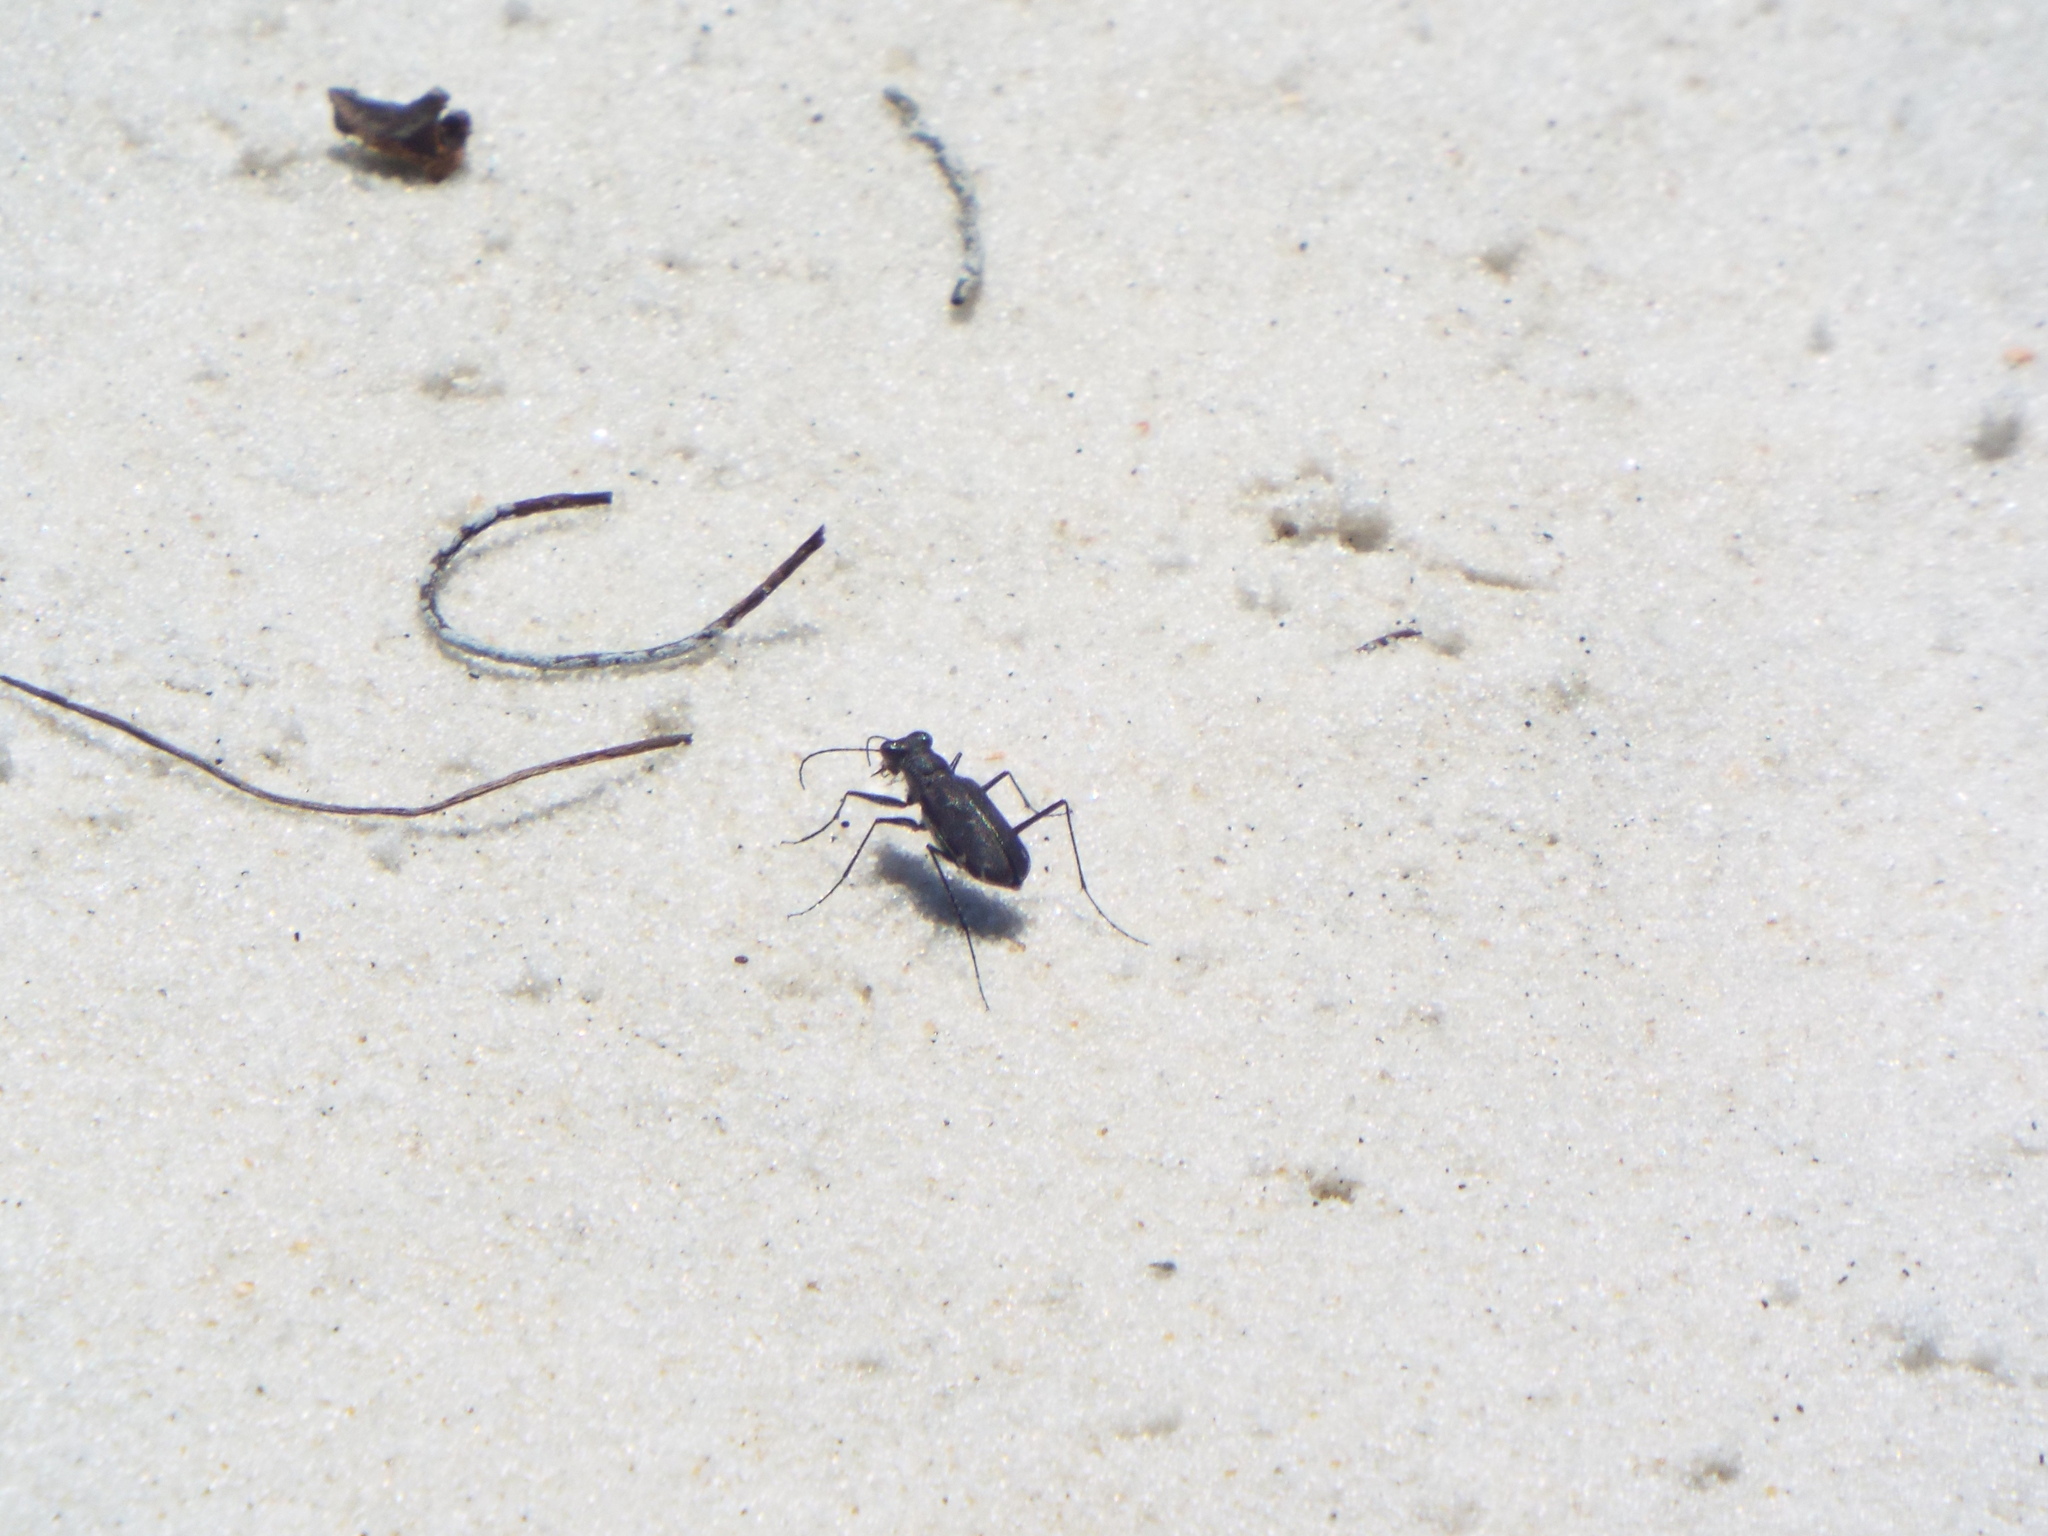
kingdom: Animalia
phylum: Arthropoda
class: Insecta
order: Coleoptera
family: Carabidae
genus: Cicindela
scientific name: Cicindela trifasciata
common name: Mudflat tiger beetle
